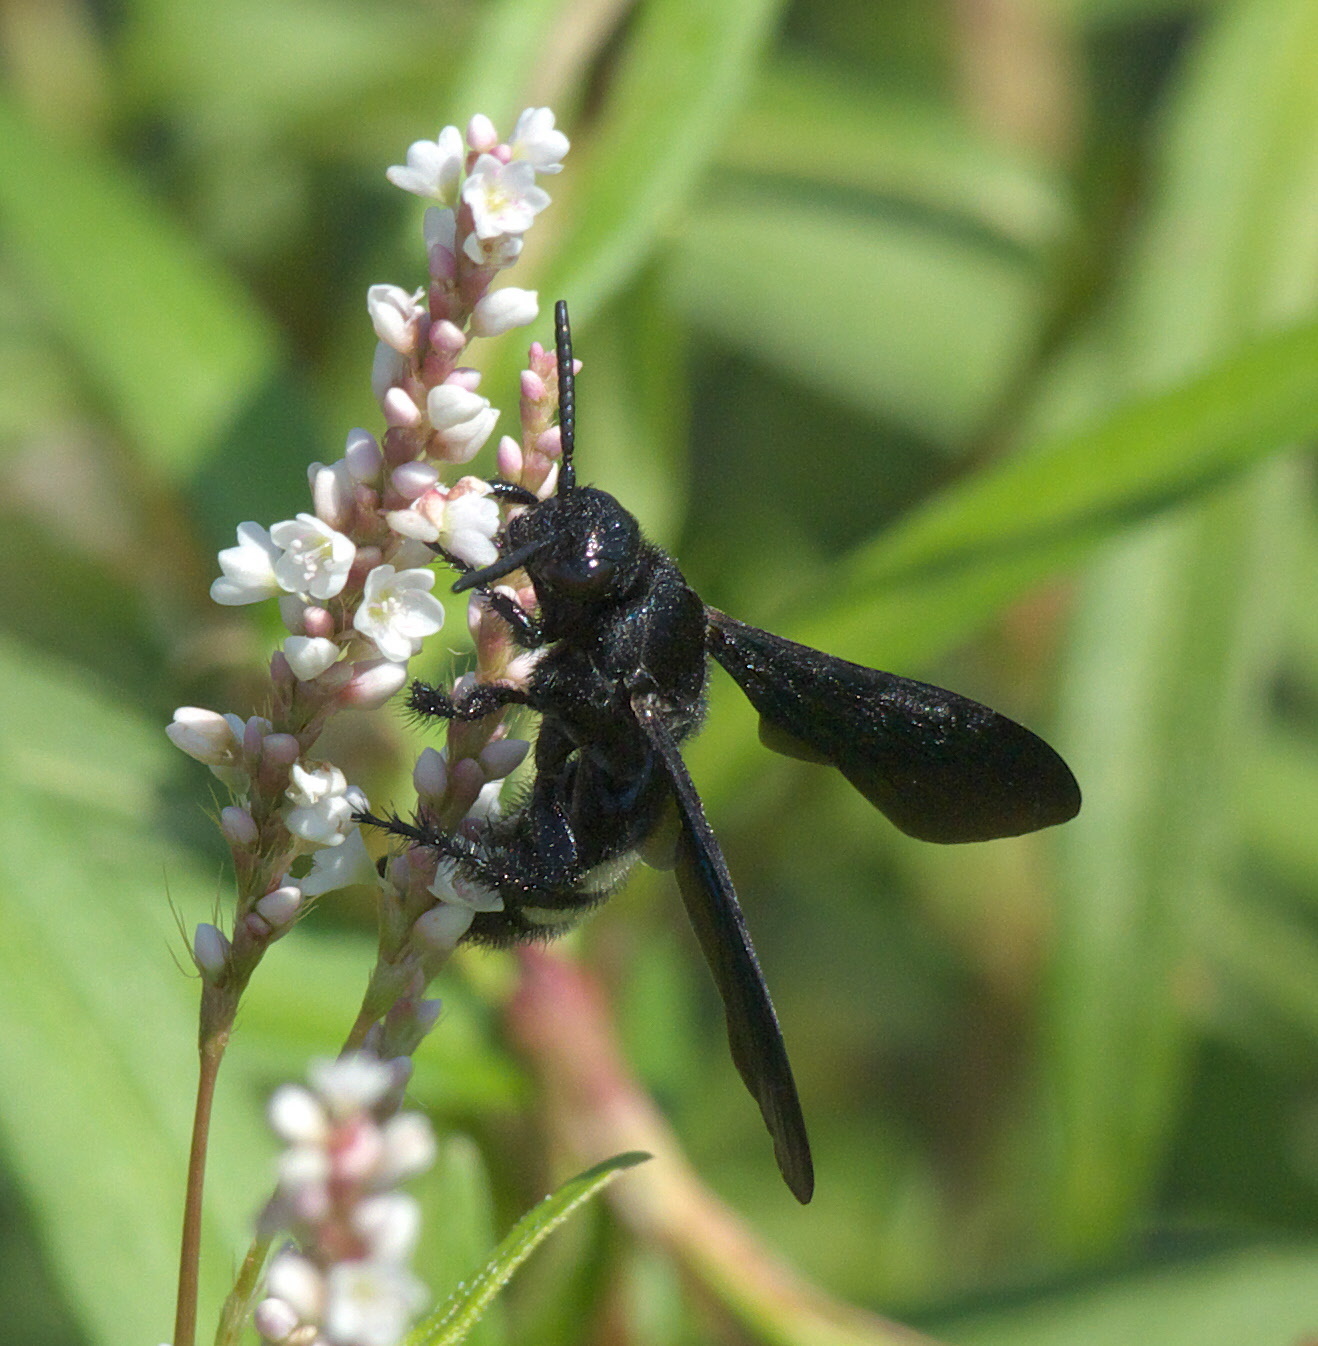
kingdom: Animalia
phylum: Arthropoda
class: Insecta
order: Hymenoptera
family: Scoliidae
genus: Scolia
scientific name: Scolia bicincta
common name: Double-banded scoliid wasp
